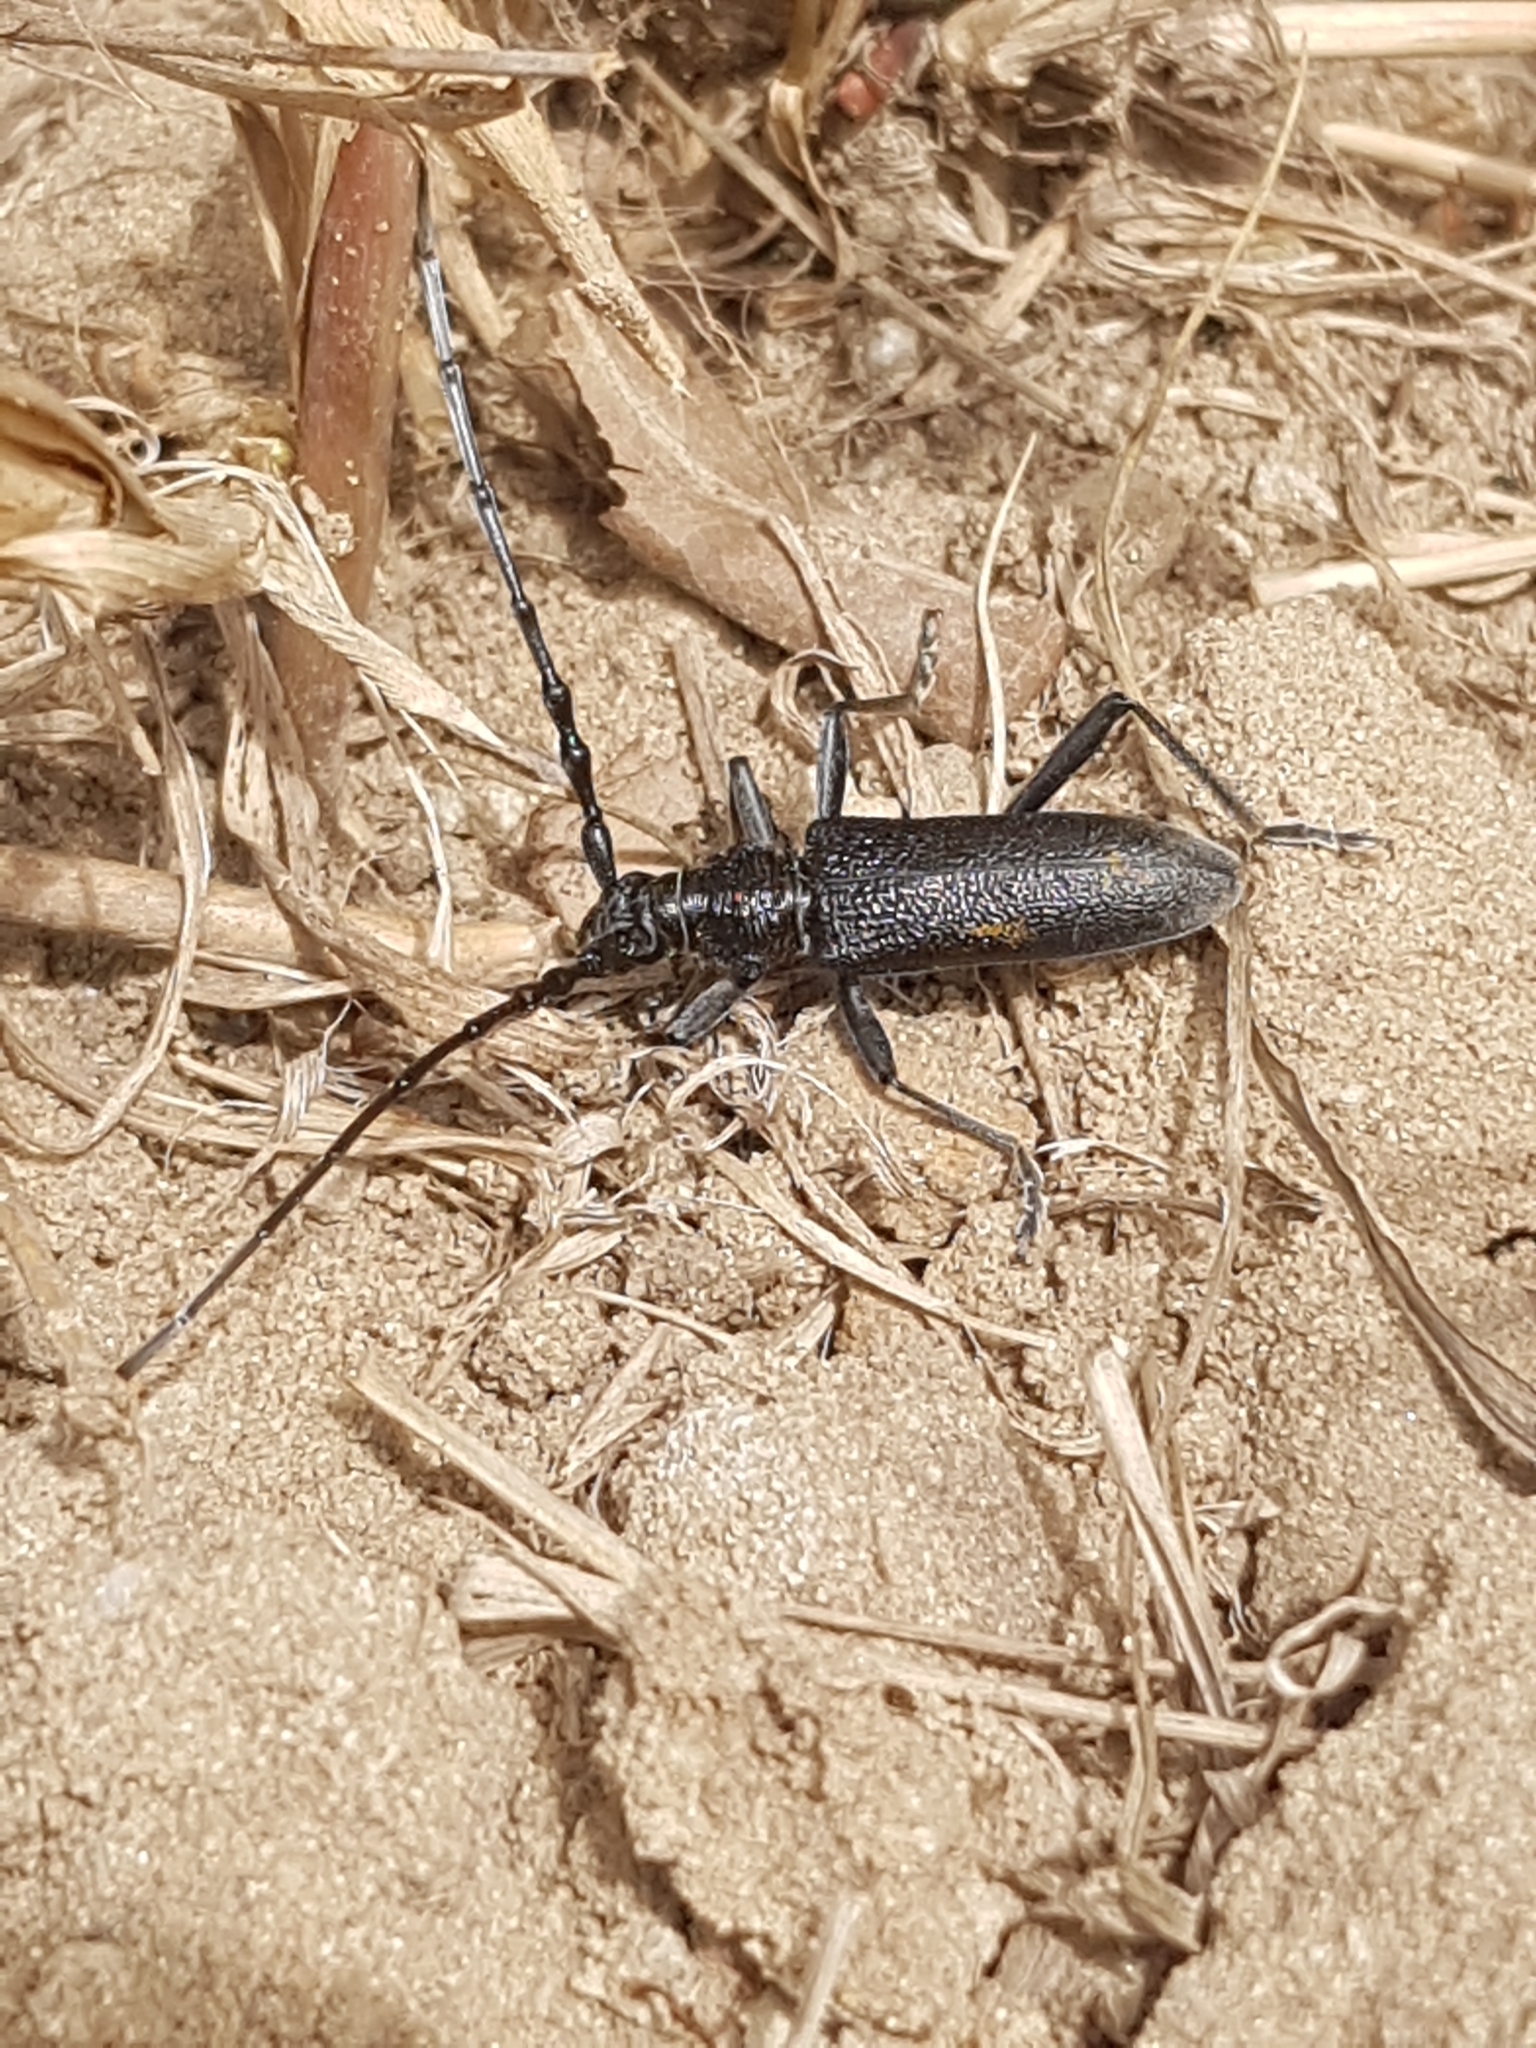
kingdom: Animalia
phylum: Arthropoda
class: Insecta
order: Coleoptera
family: Cerambycidae
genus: Cerambyx
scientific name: Cerambyx scopolii
